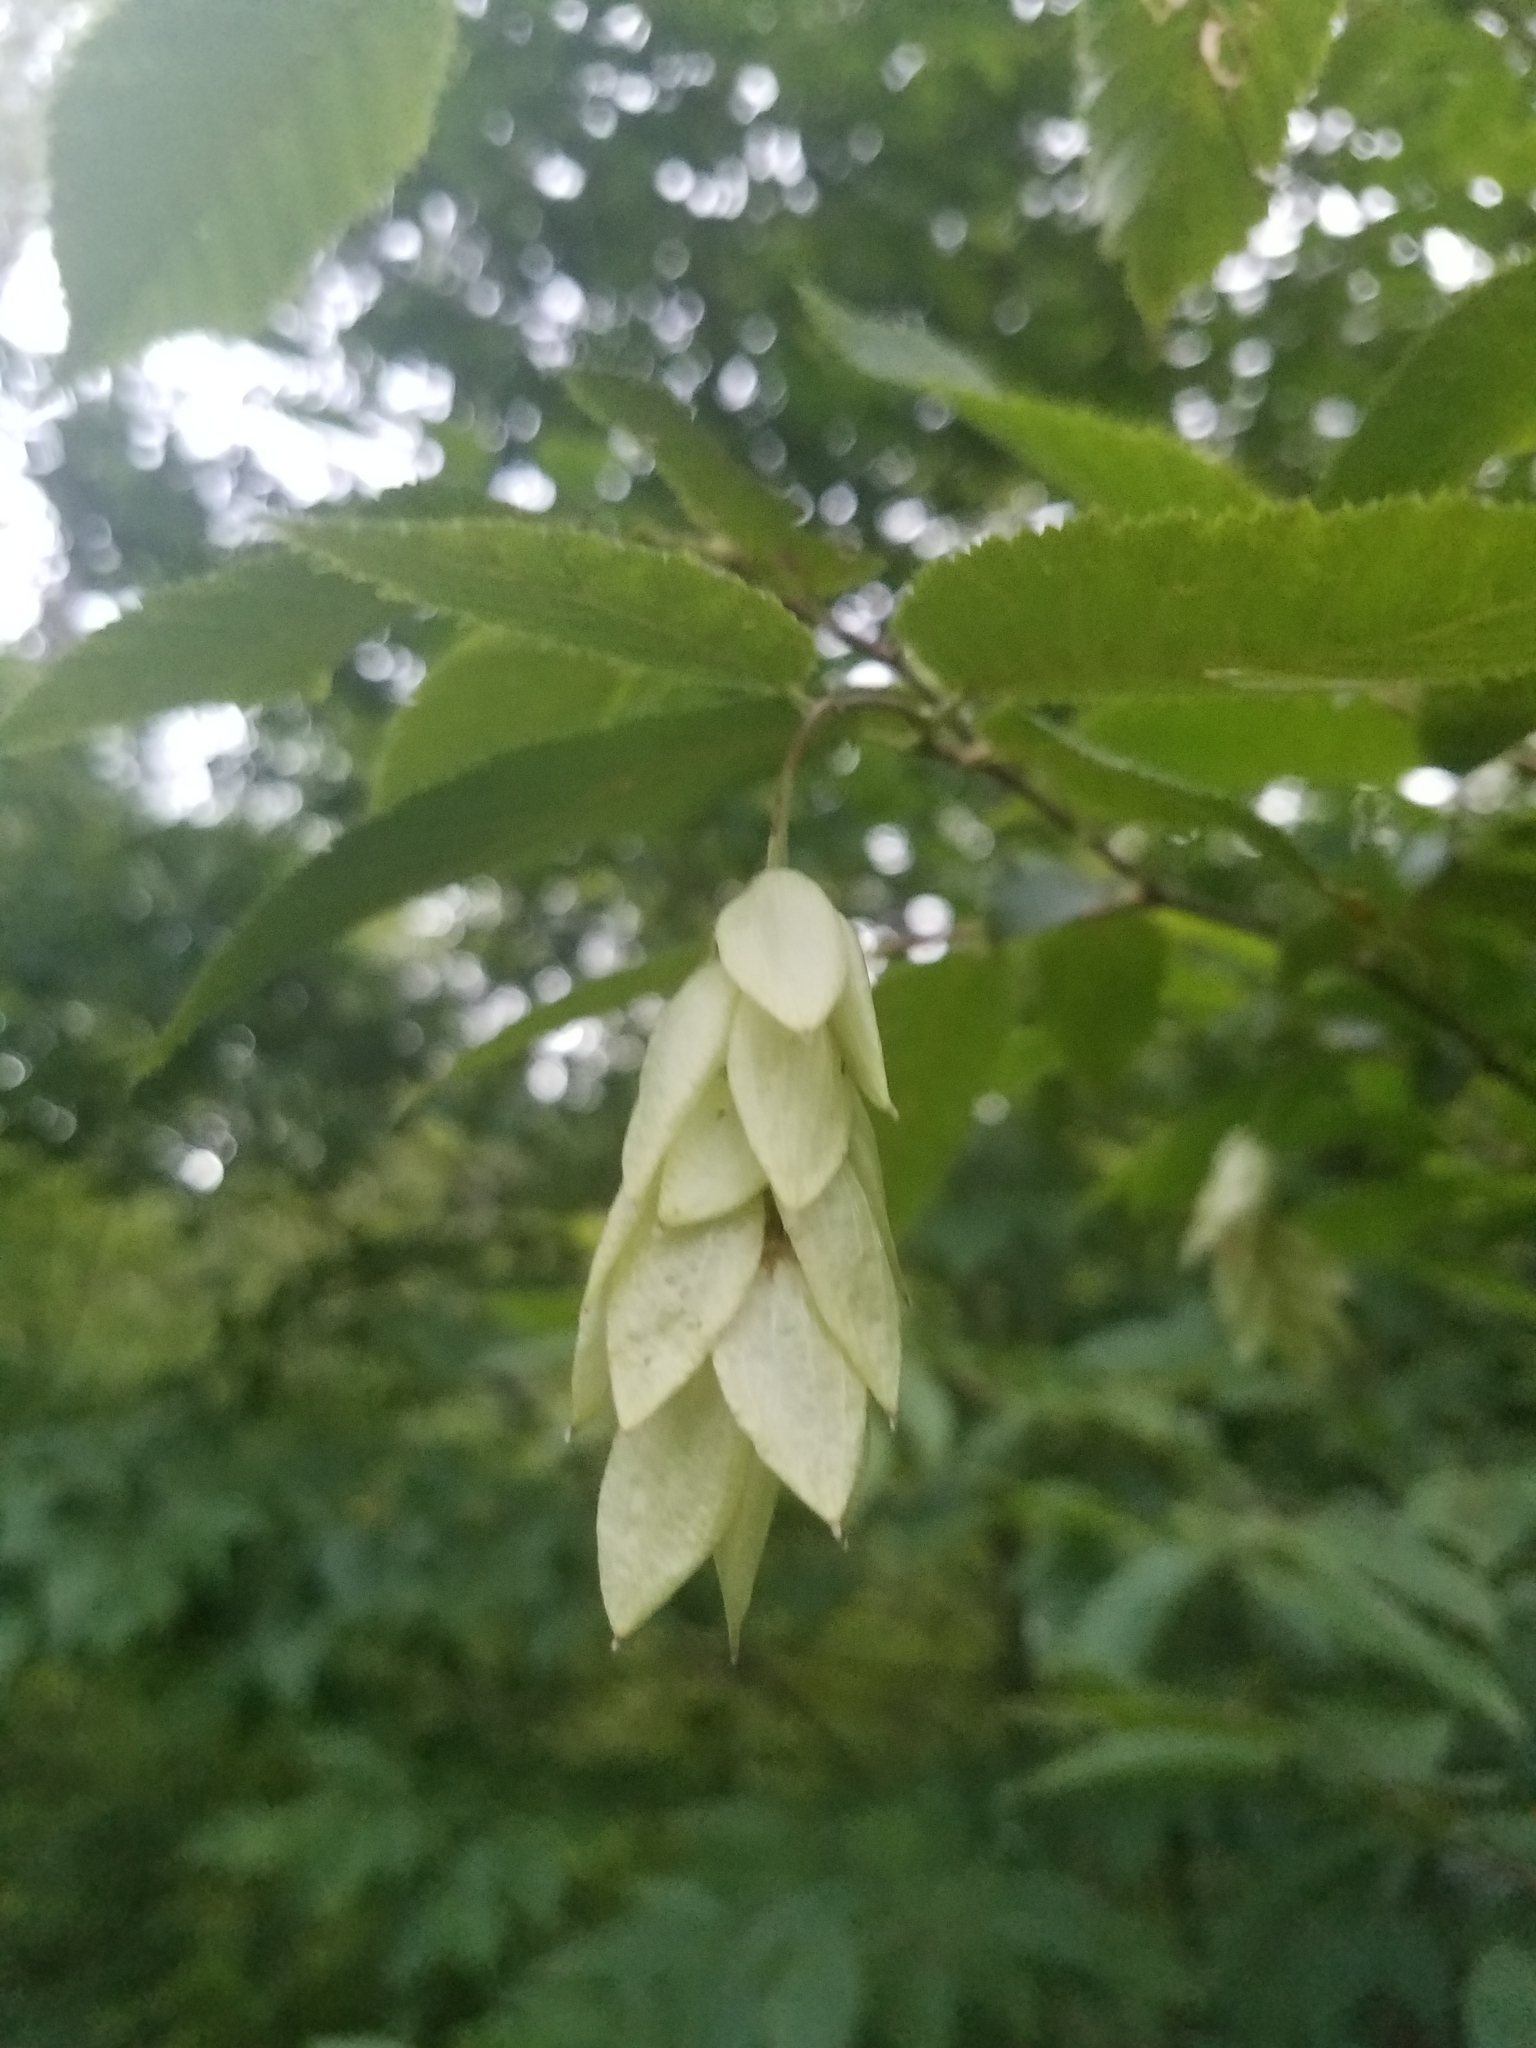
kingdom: Plantae
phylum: Tracheophyta
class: Magnoliopsida
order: Fagales
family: Betulaceae
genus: Ostrya
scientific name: Ostrya virginiana
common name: Ironwood
